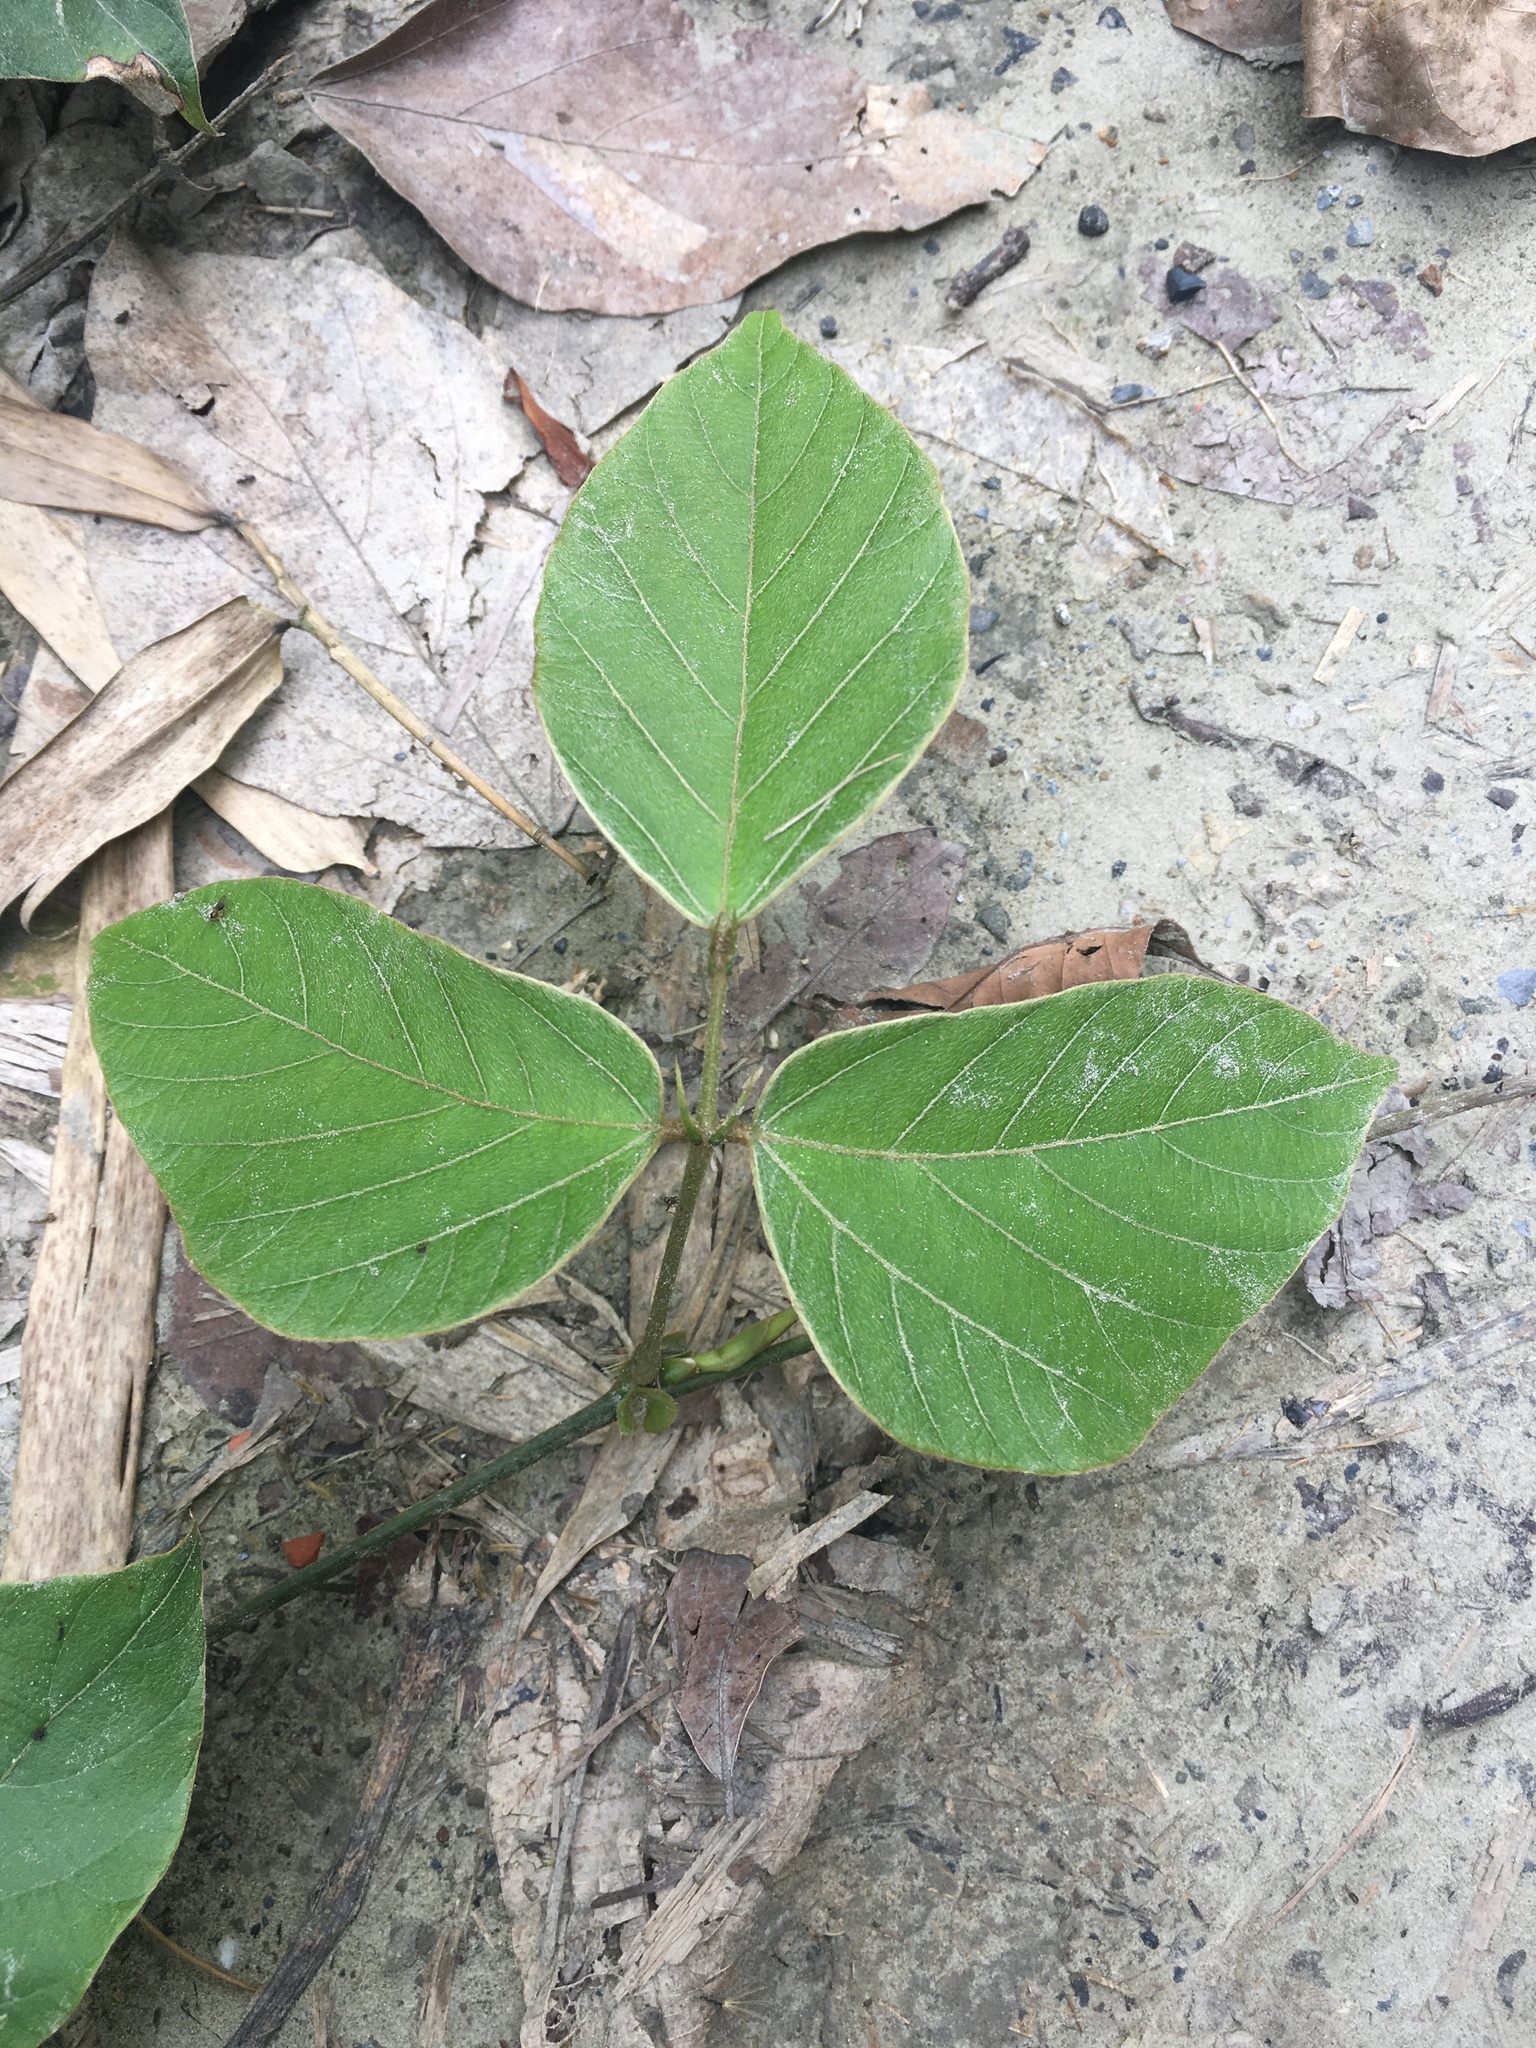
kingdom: Plantae
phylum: Tracheophyta
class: Magnoliopsida
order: Fabales
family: Fabaceae
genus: Pueraria
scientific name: Pueraria montana
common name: Kudzu
